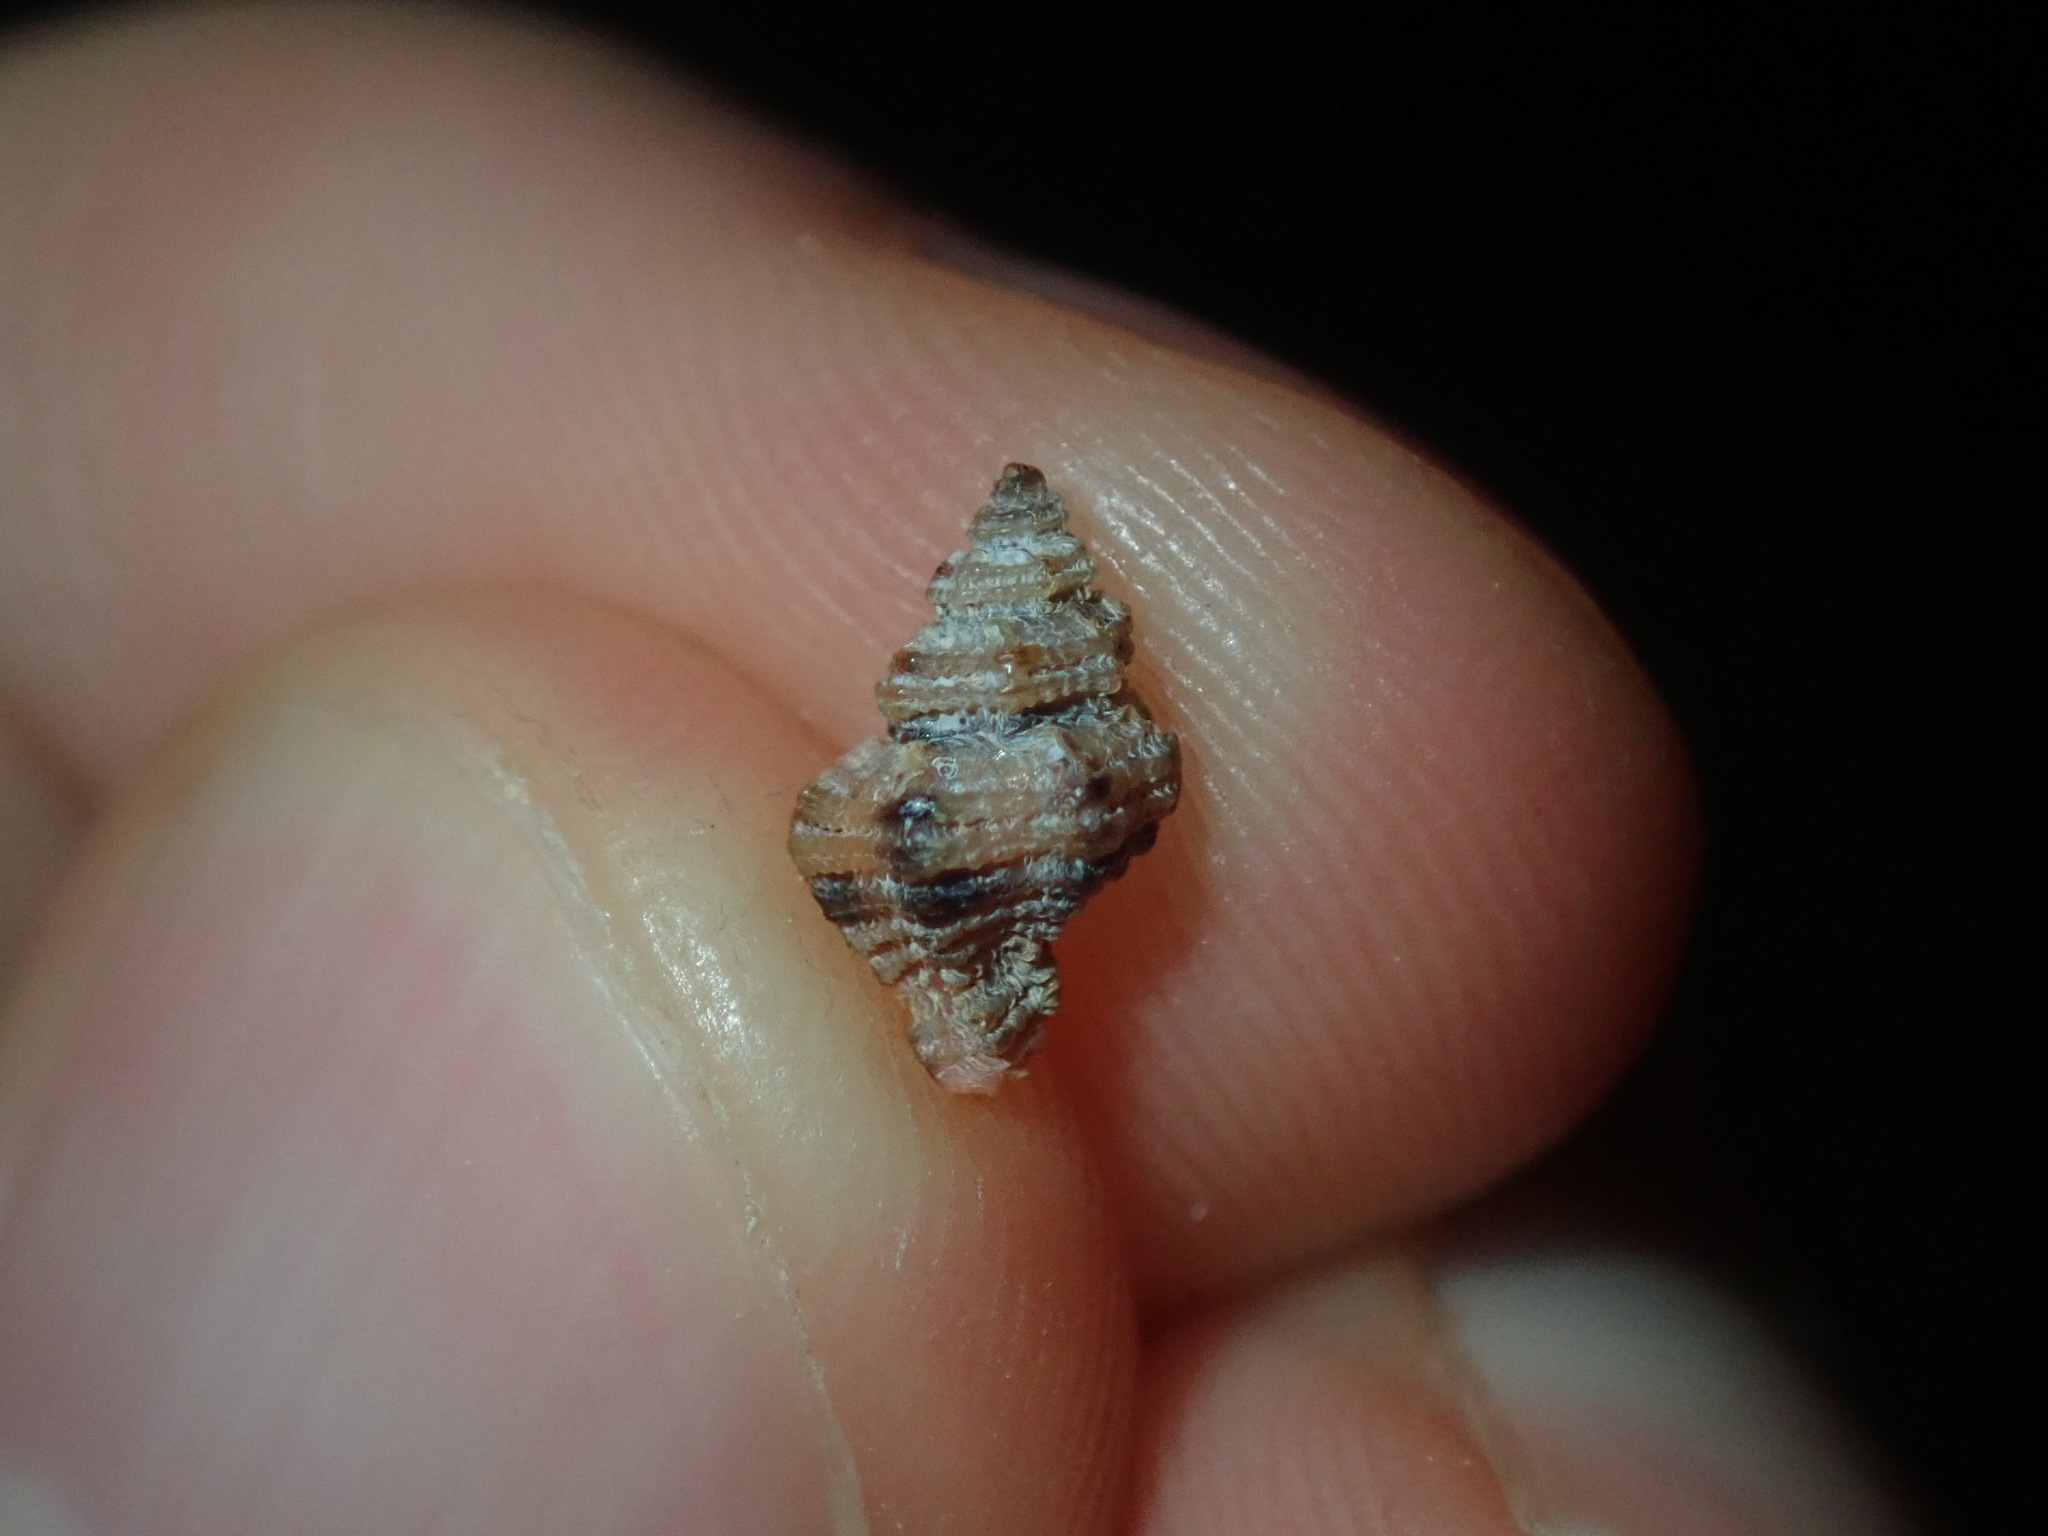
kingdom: Animalia
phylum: Mollusca
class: Gastropoda
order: Neogastropoda
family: Muricidae
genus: Favartia
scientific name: Favartia brazieri
